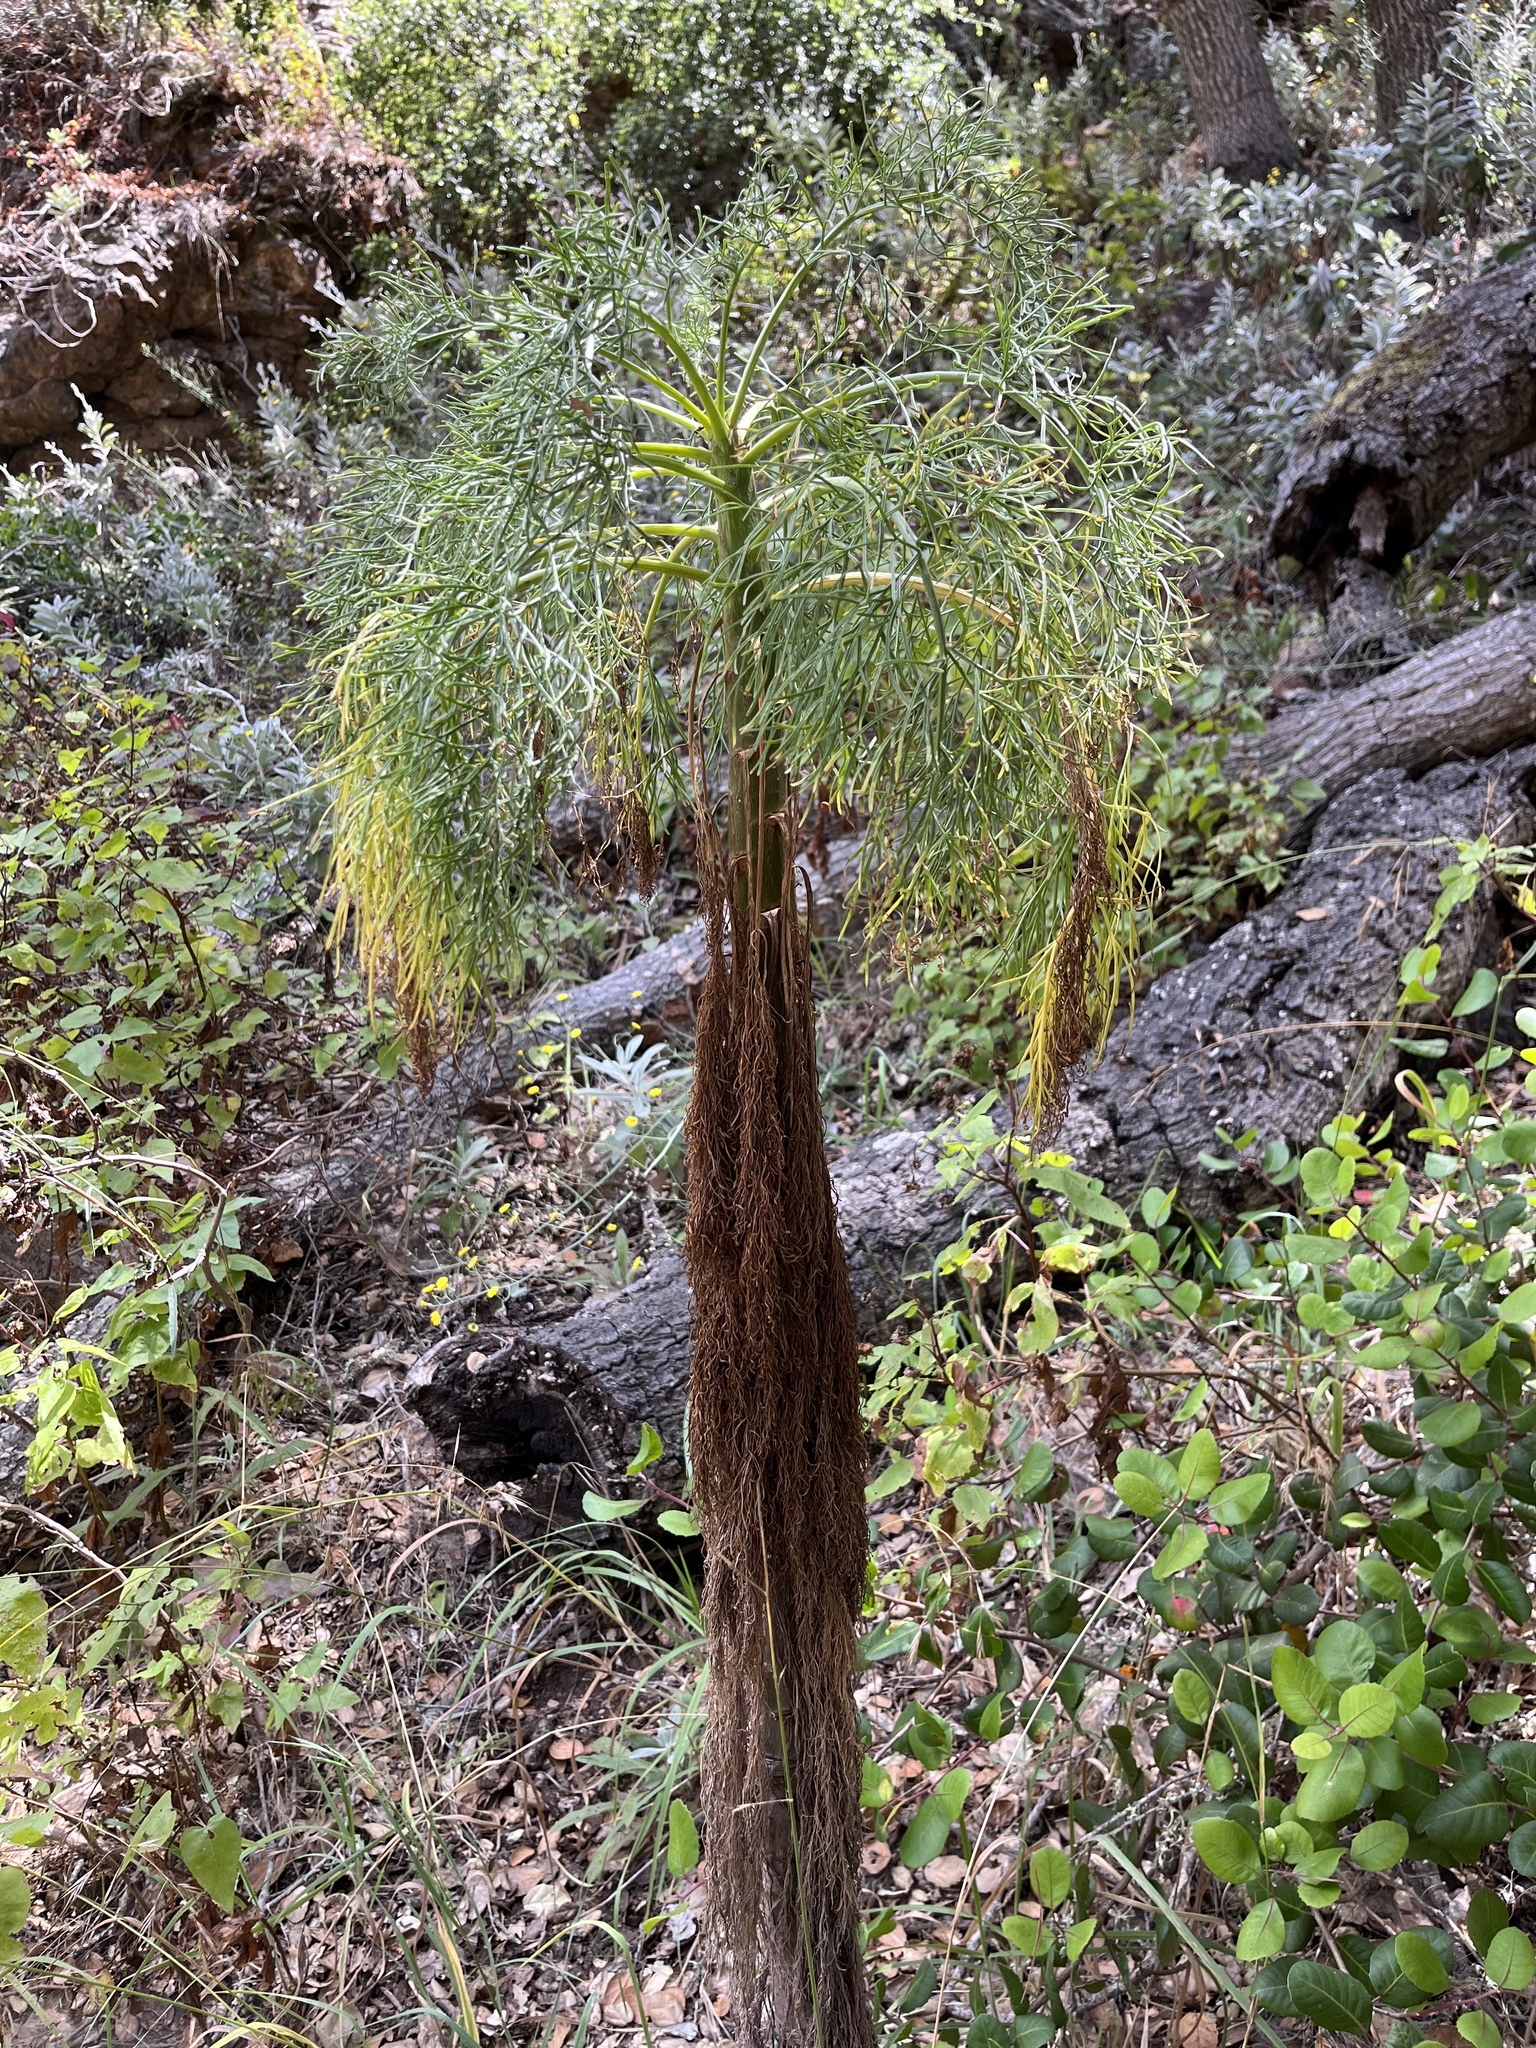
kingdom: Plantae
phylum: Tracheophyta
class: Magnoliopsida
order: Asterales
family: Asteraceae
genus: Coreopsis
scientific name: Coreopsis gigantea
